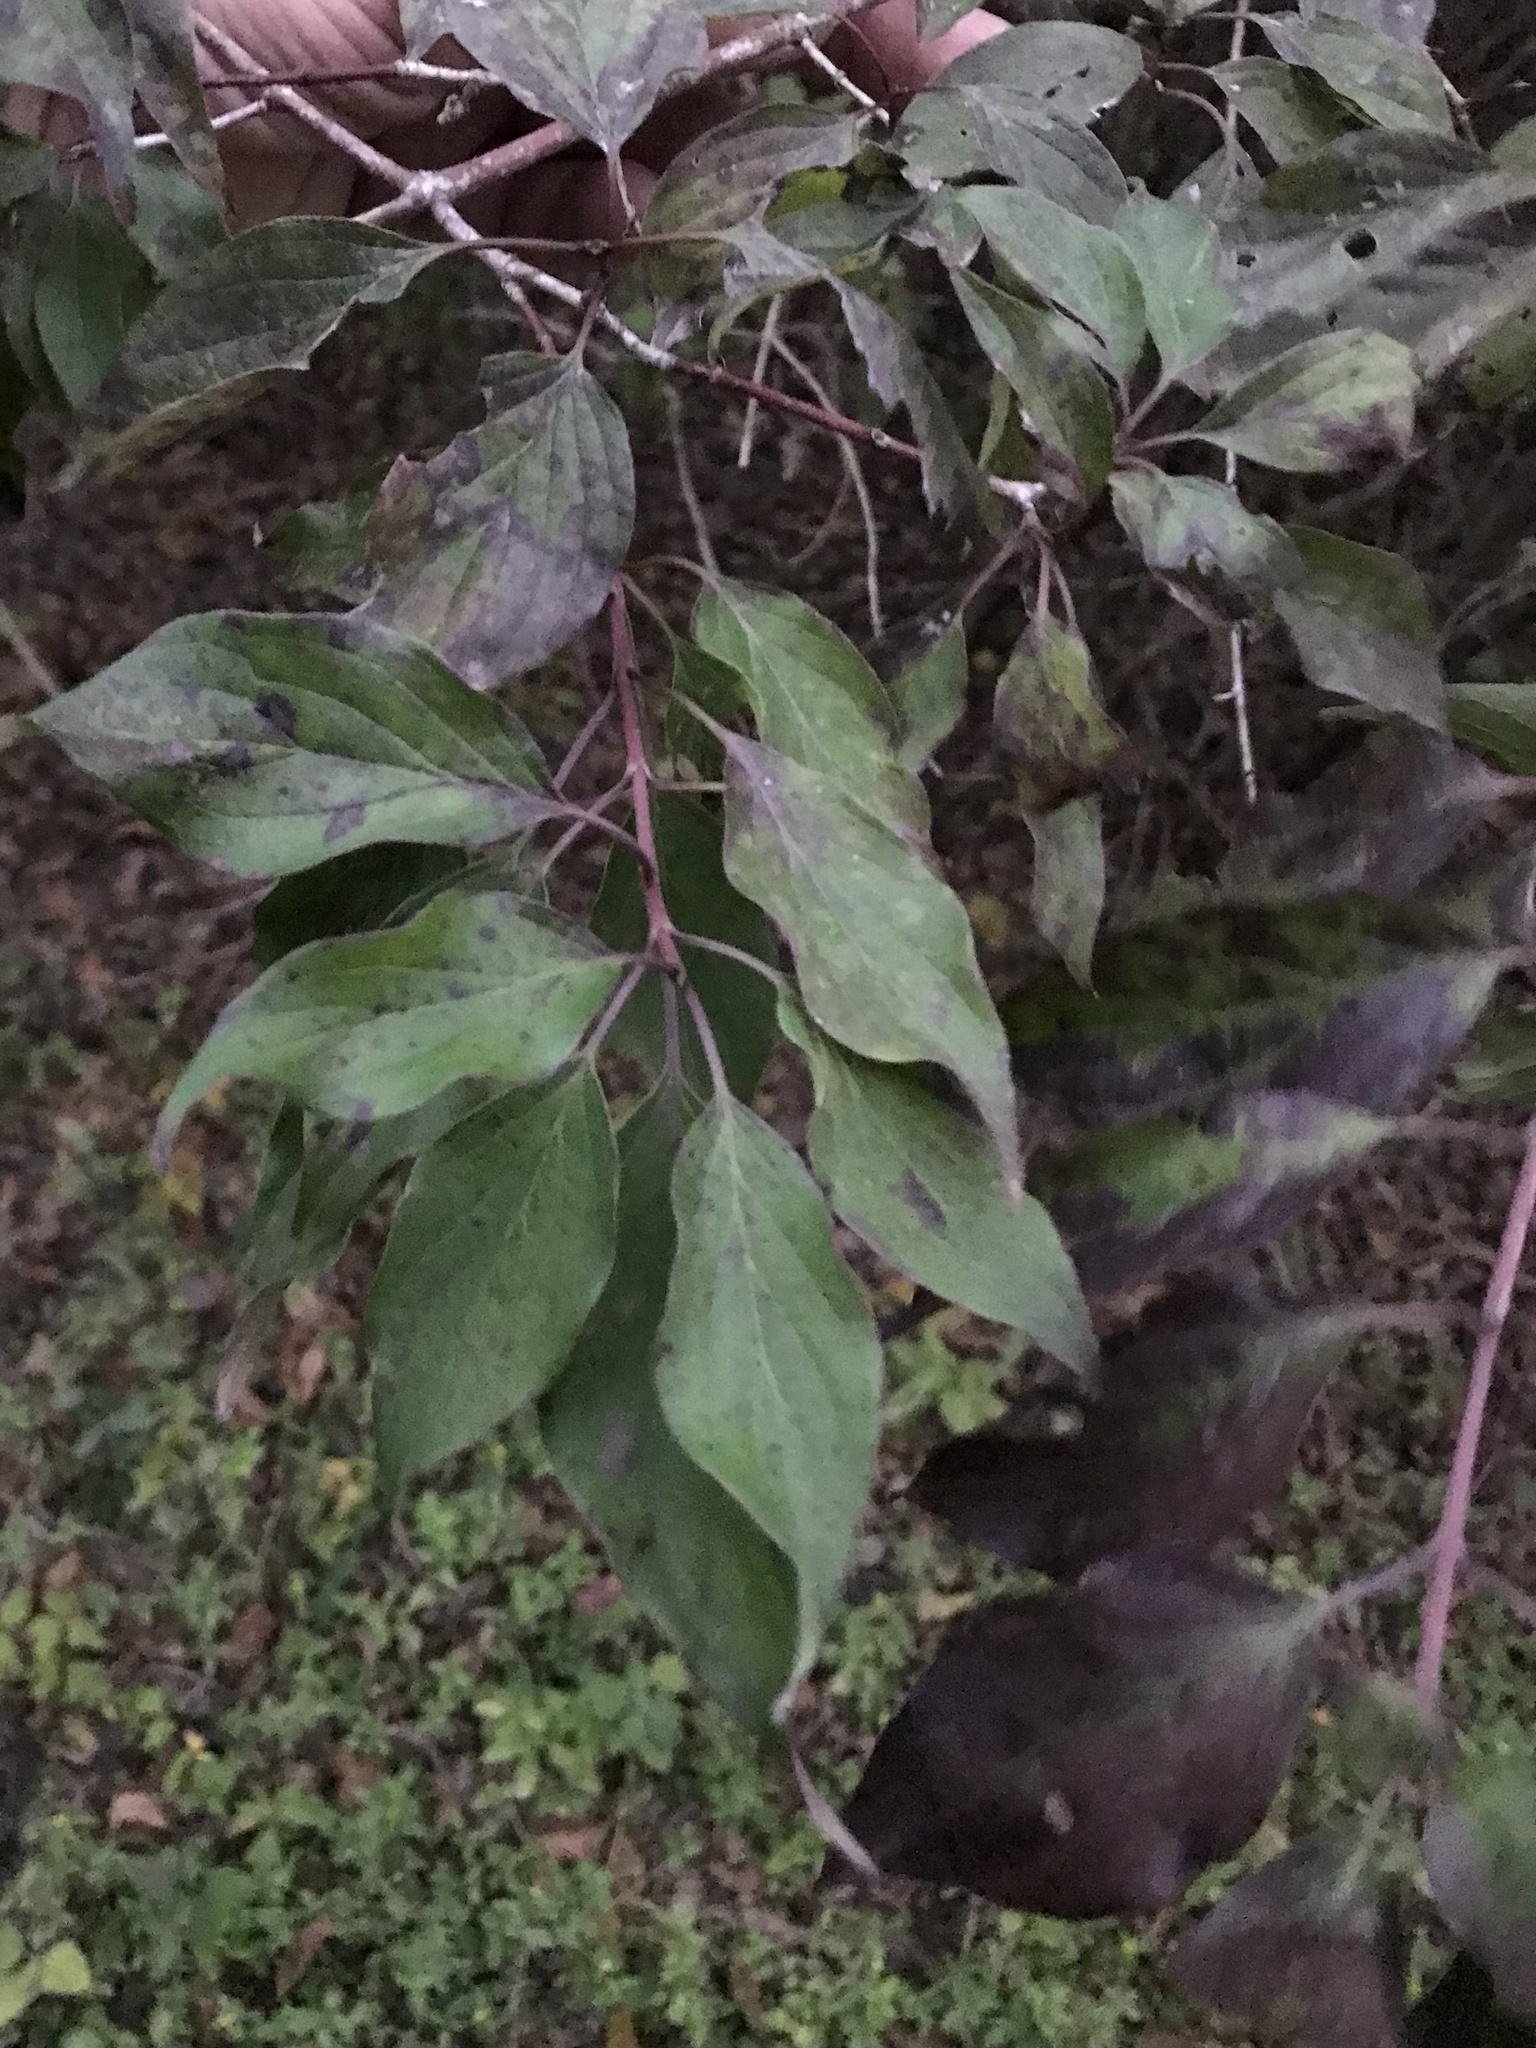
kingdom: Plantae
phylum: Tracheophyta
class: Magnoliopsida
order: Cornales
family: Cornaceae
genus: Cornus
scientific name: Cornus drummondii
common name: Rough-leaf dogwood
